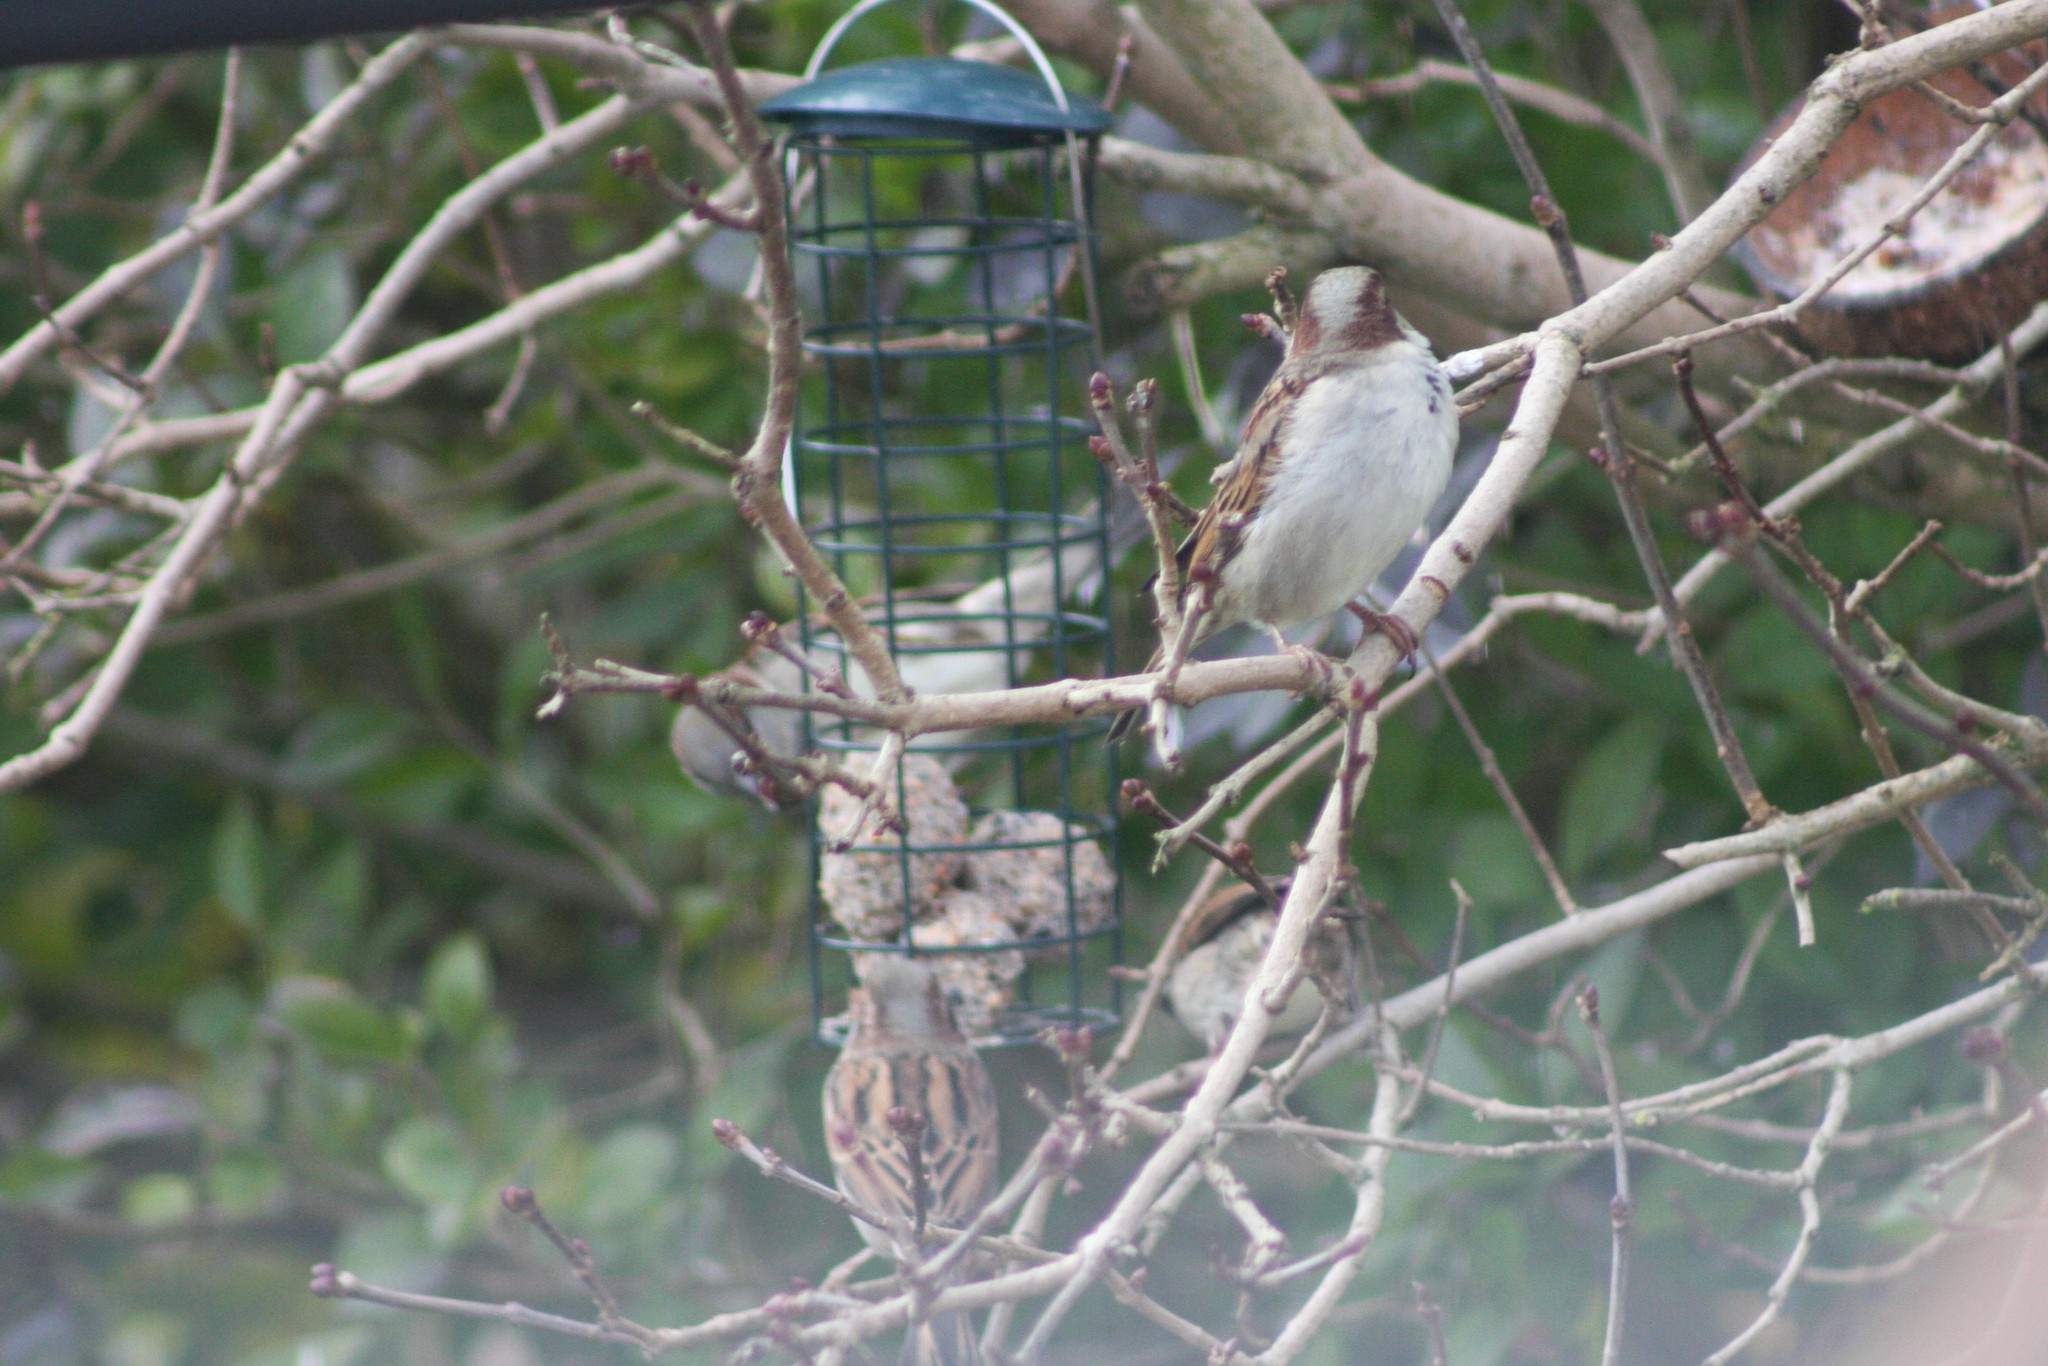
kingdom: Animalia
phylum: Chordata
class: Aves
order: Passeriformes
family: Passeridae
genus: Passer
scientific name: Passer domesticus
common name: House sparrow
